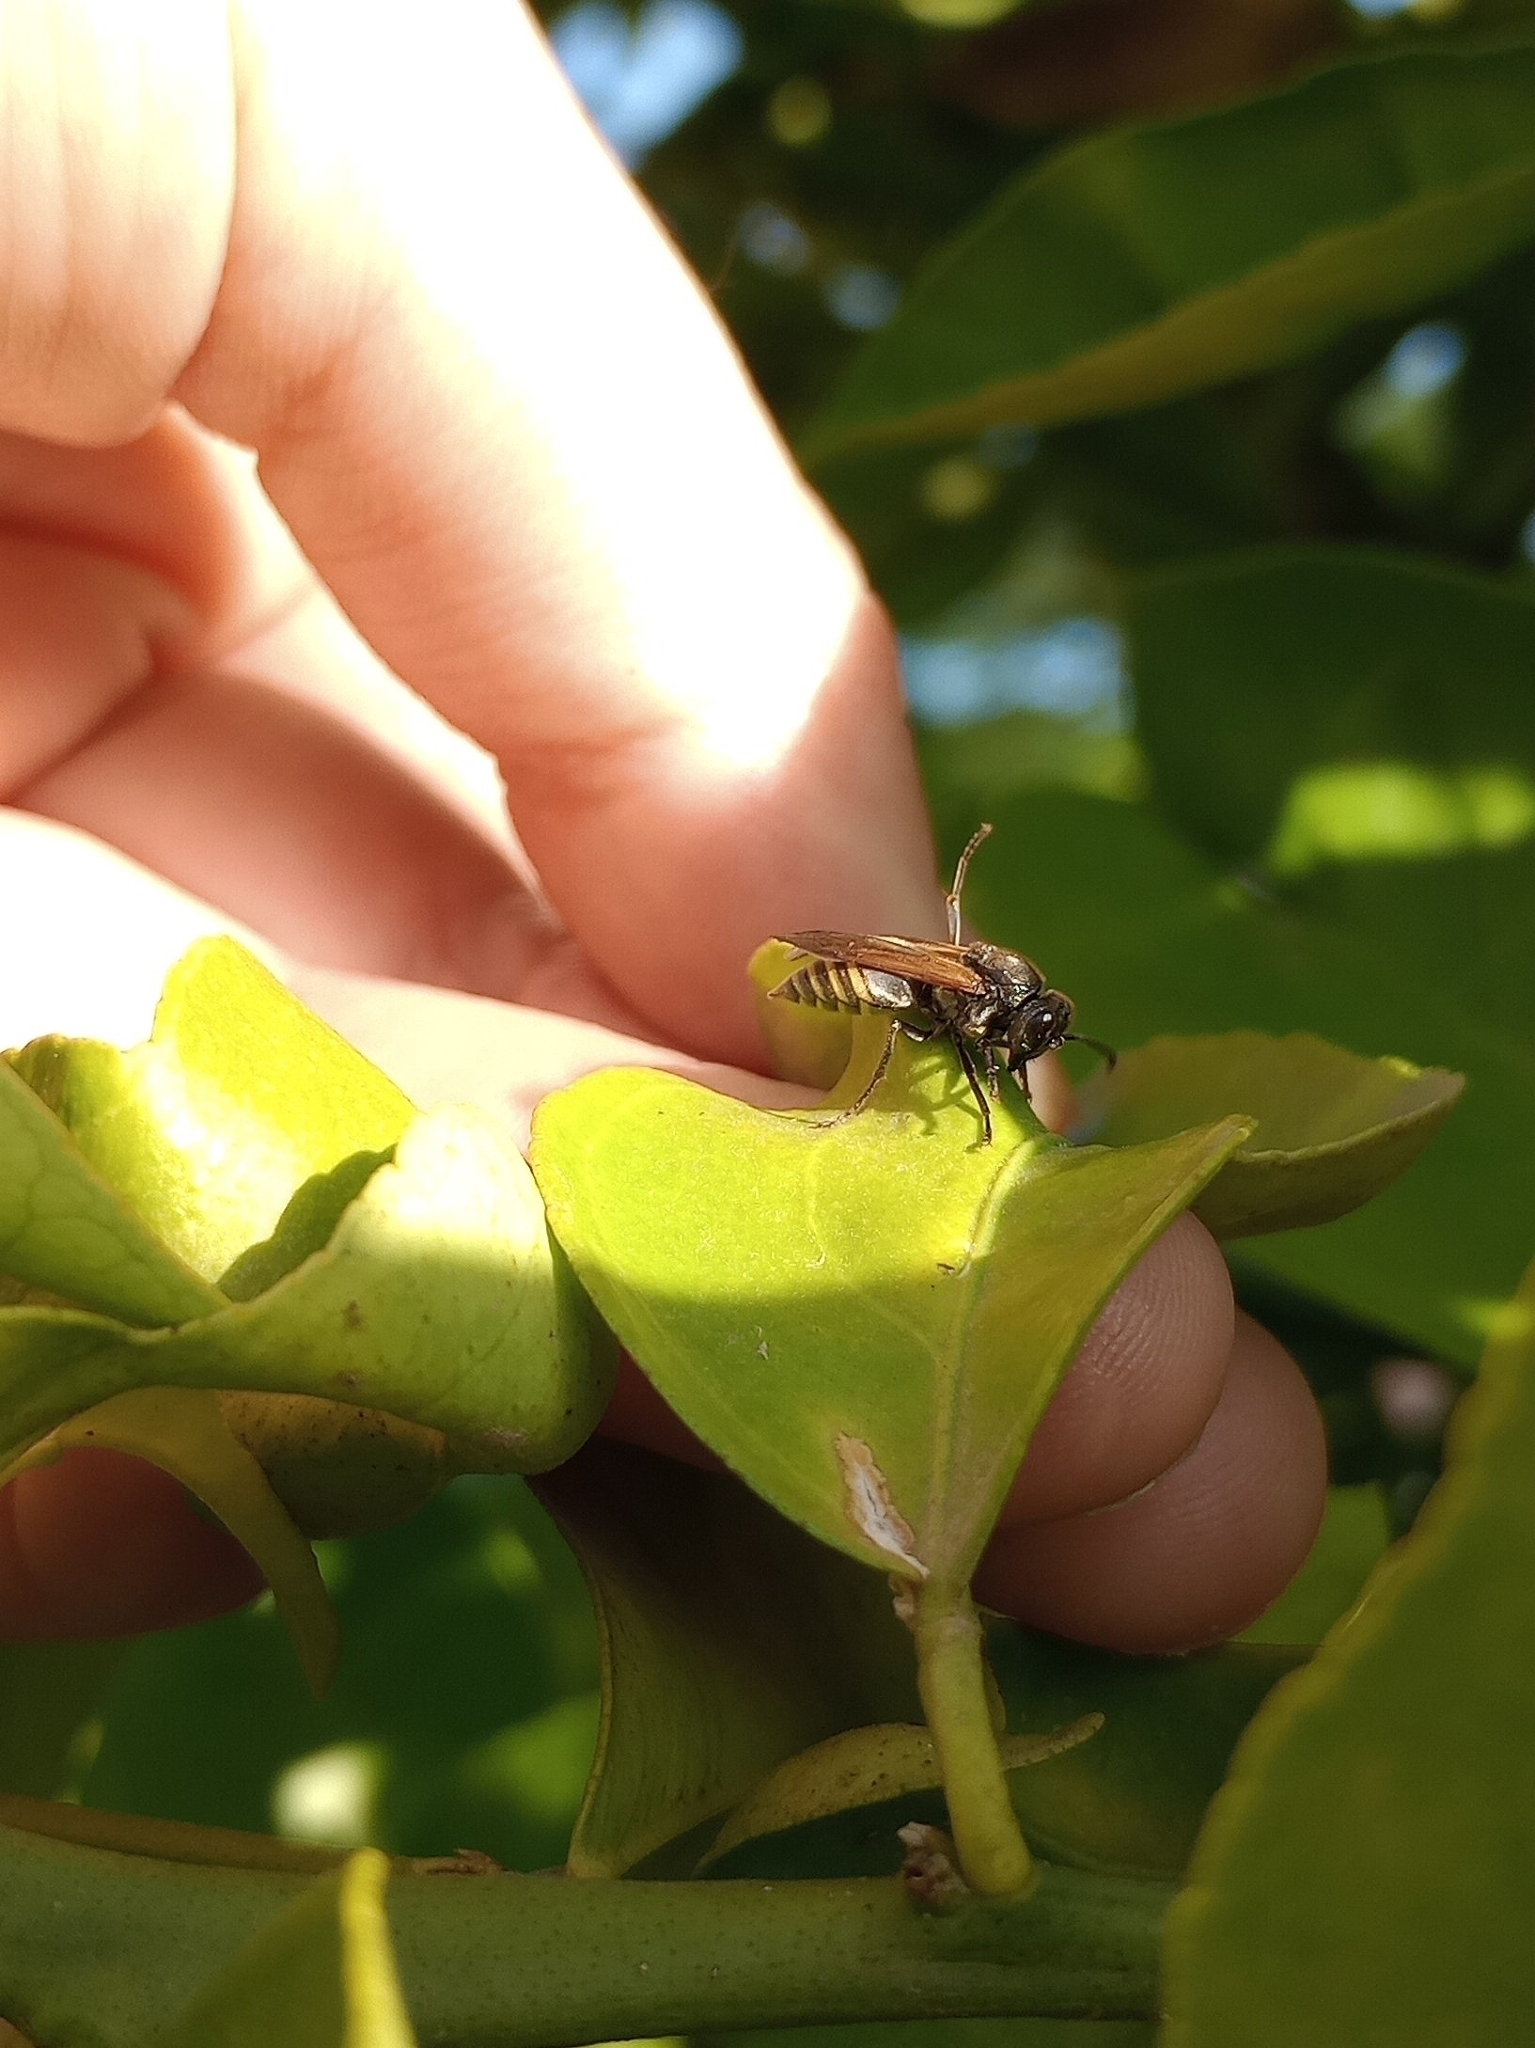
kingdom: Animalia
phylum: Arthropoda
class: Insecta
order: Hymenoptera
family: Vespidae
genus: Brachygastra
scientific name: Brachygastra lecheguana
